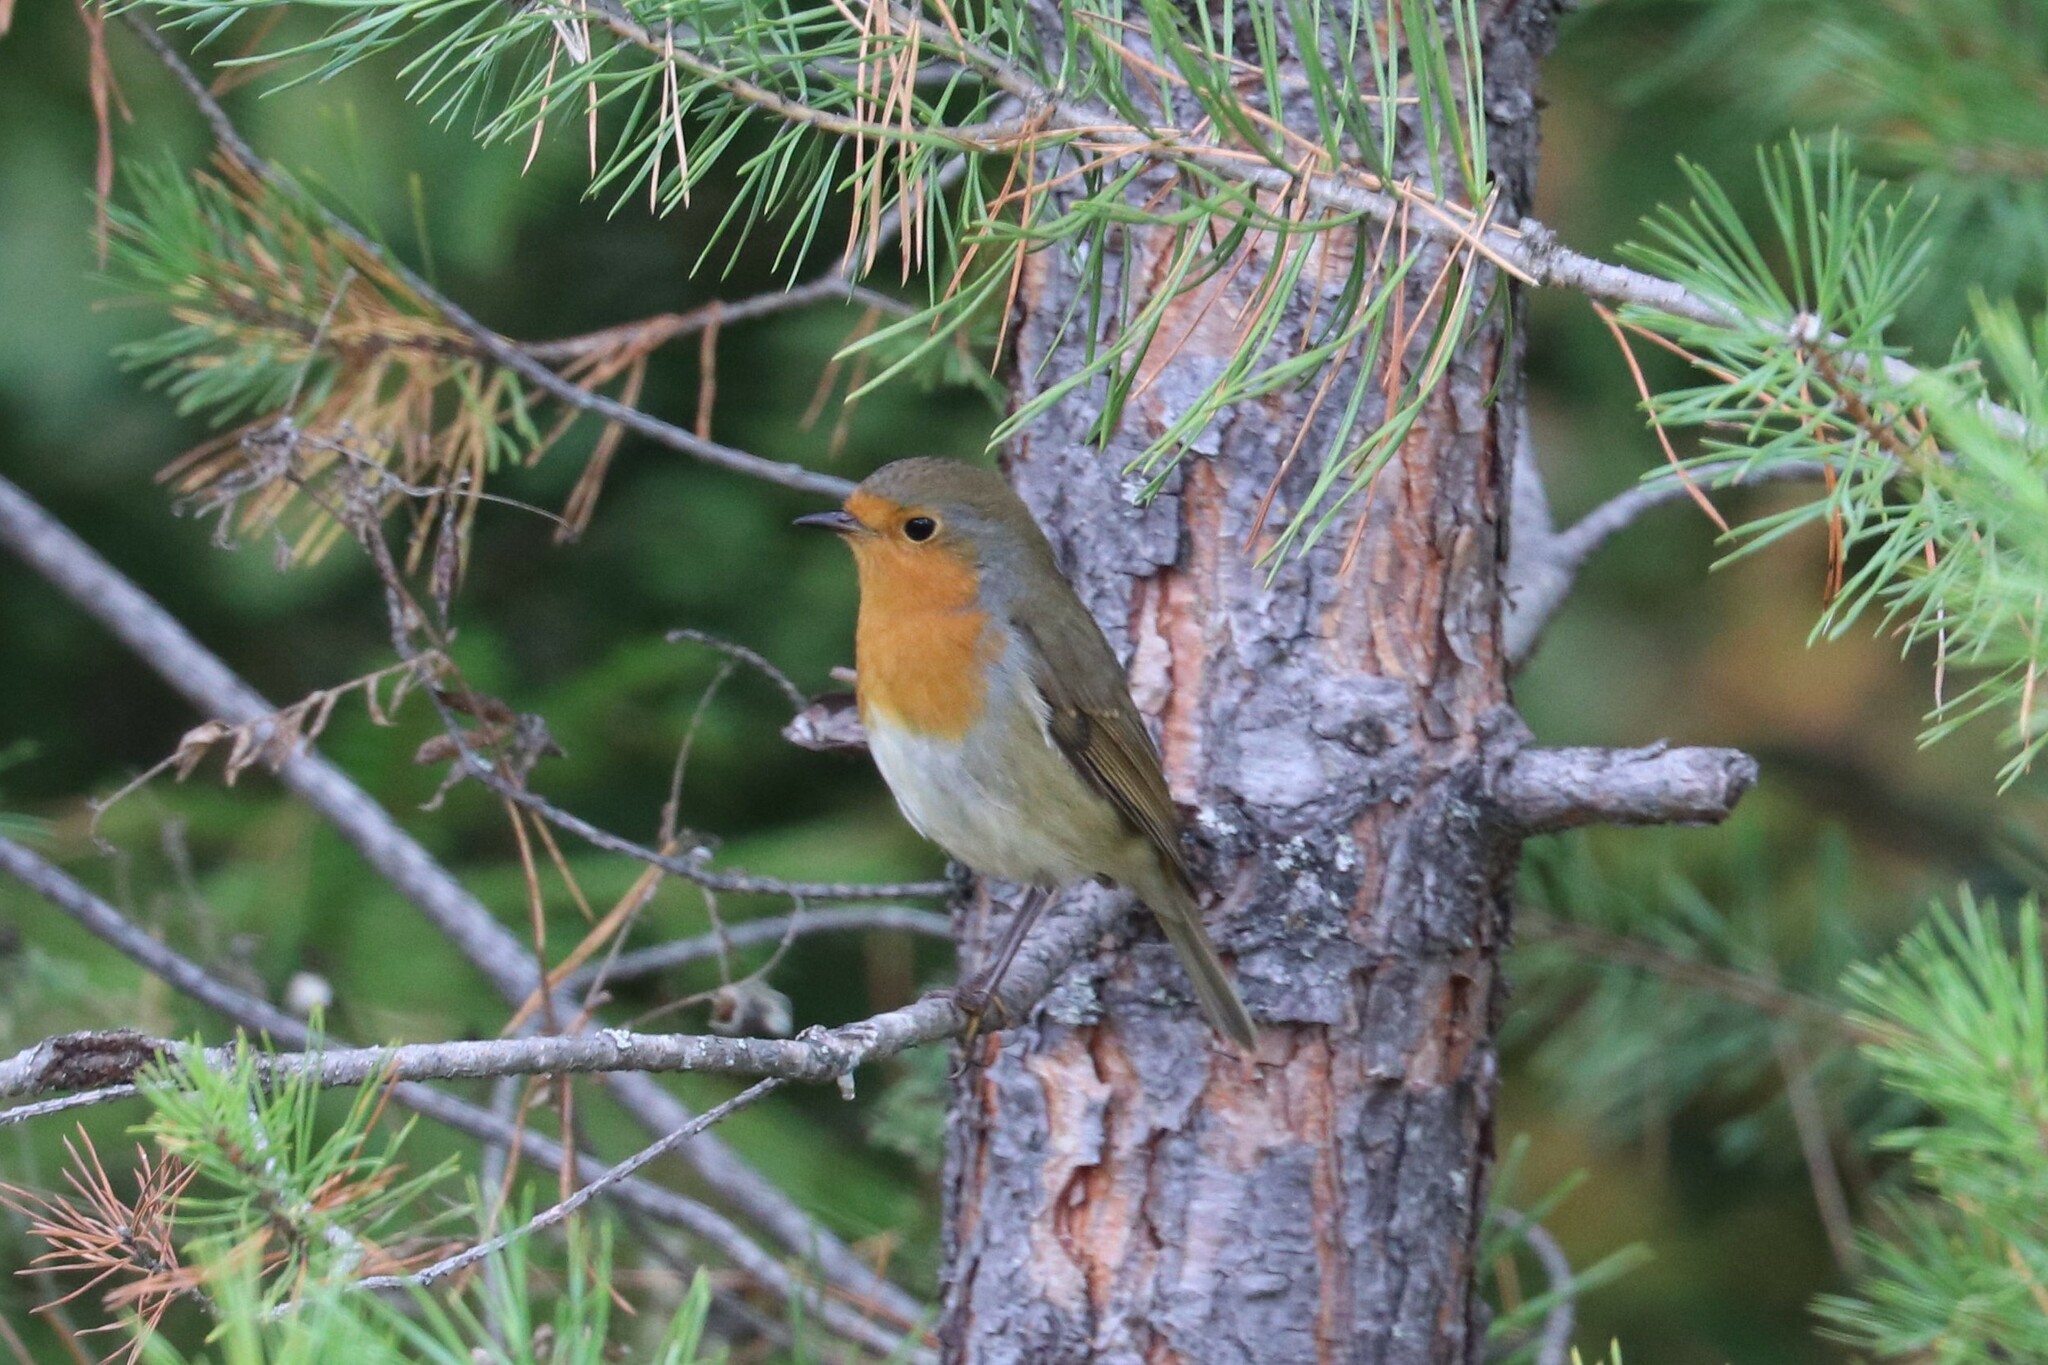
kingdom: Animalia
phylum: Chordata
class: Aves
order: Passeriformes
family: Muscicapidae
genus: Erithacus
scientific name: Erithacus rubecula
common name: European robin
